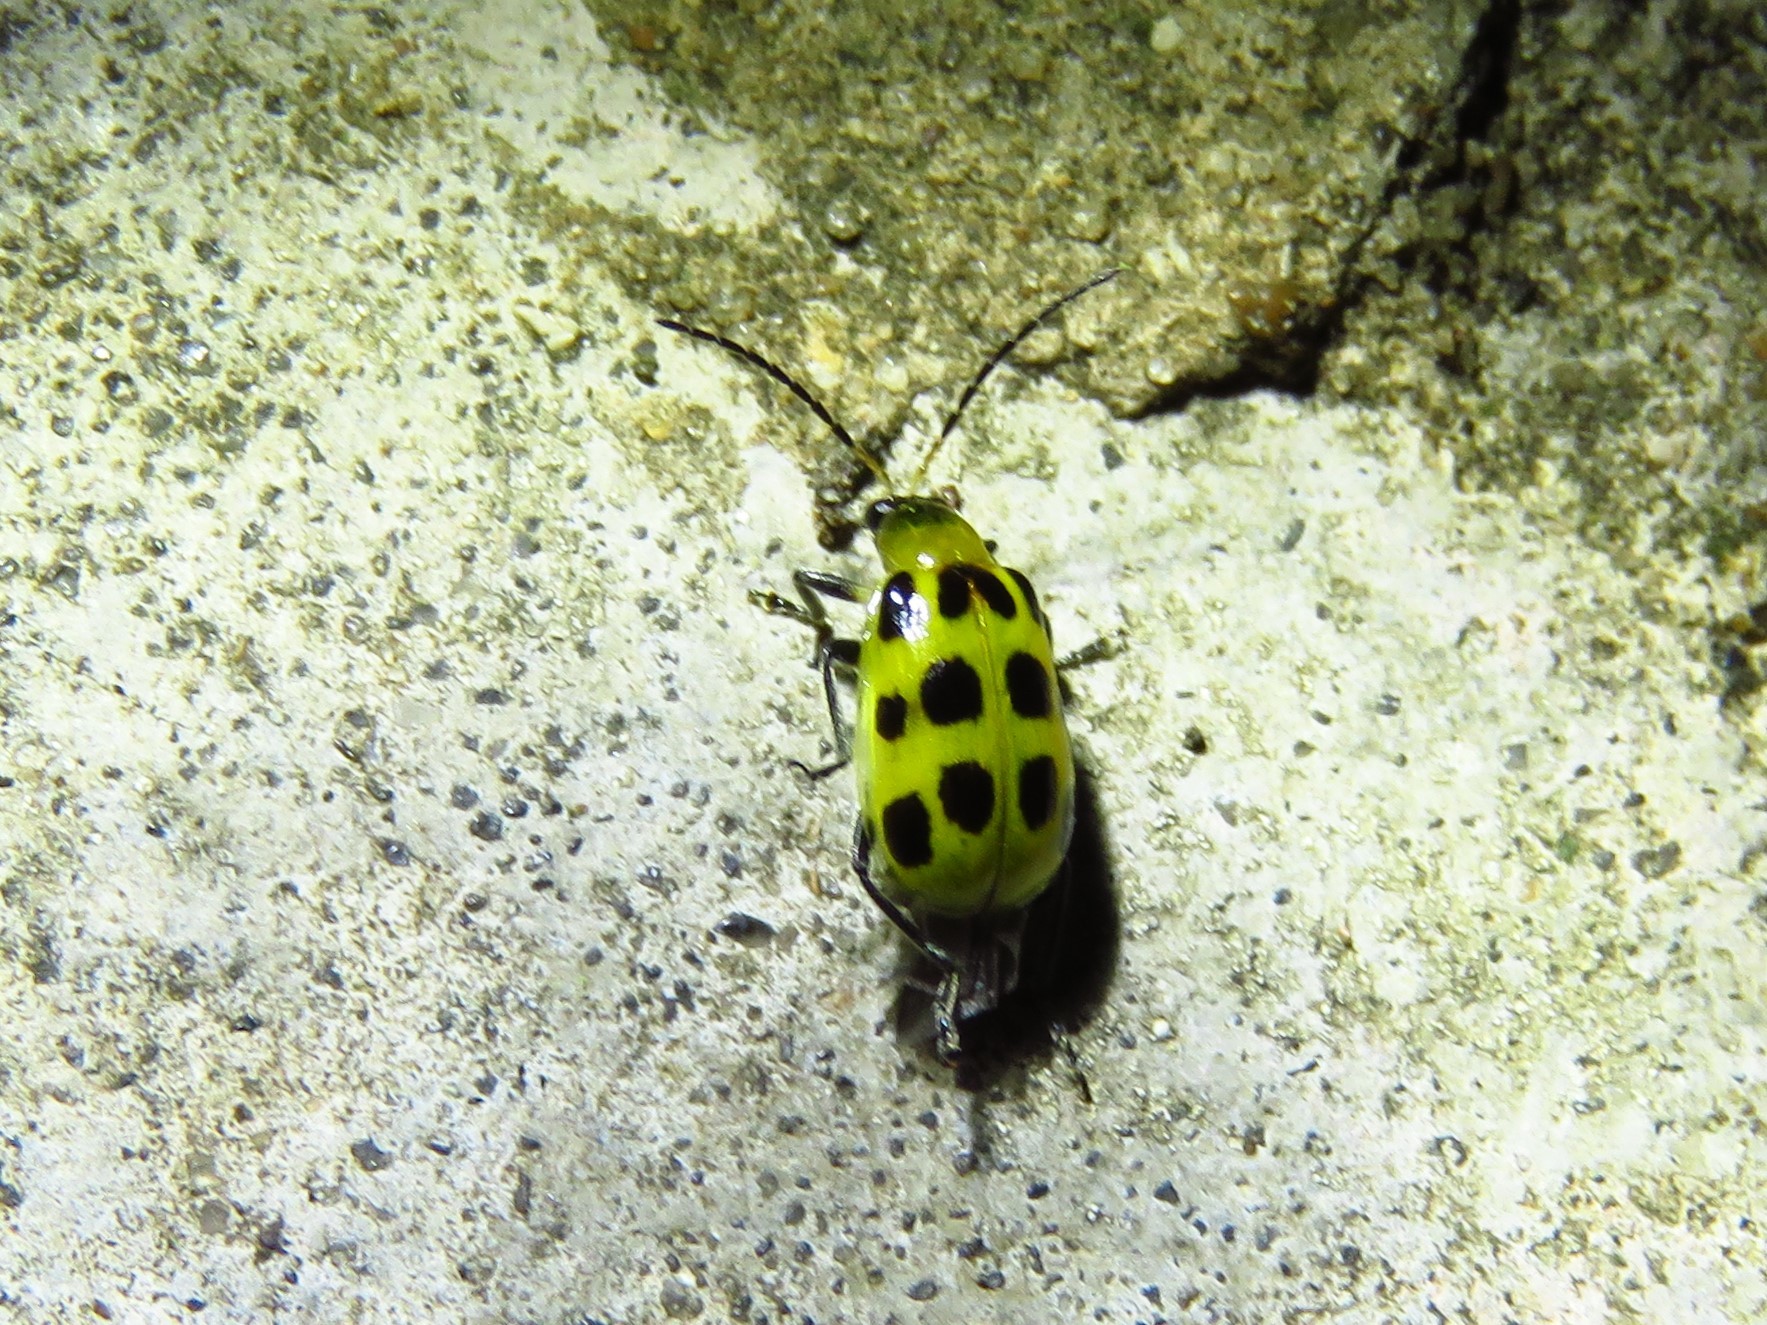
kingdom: Animalia
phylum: Arthropoda
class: Insecta
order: Coleoptera
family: Chrysomelidae
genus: Diabrotica
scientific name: Diabrotica undecimpunctata
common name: Spotted cucumber beetle
